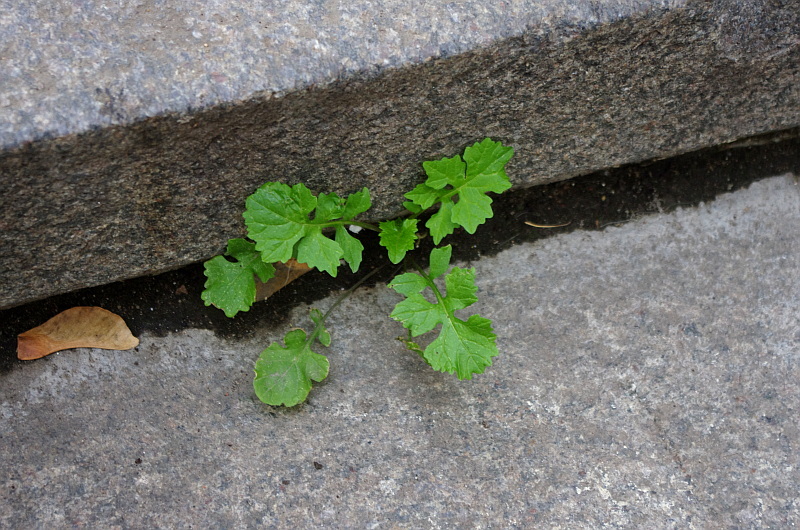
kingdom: Plantae
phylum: Tracheophyta
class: Magnoliopsida
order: Brassicales
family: Brassicaceae
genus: Sisymbrium
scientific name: Sisymbrium officinale
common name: Hedge mustard
